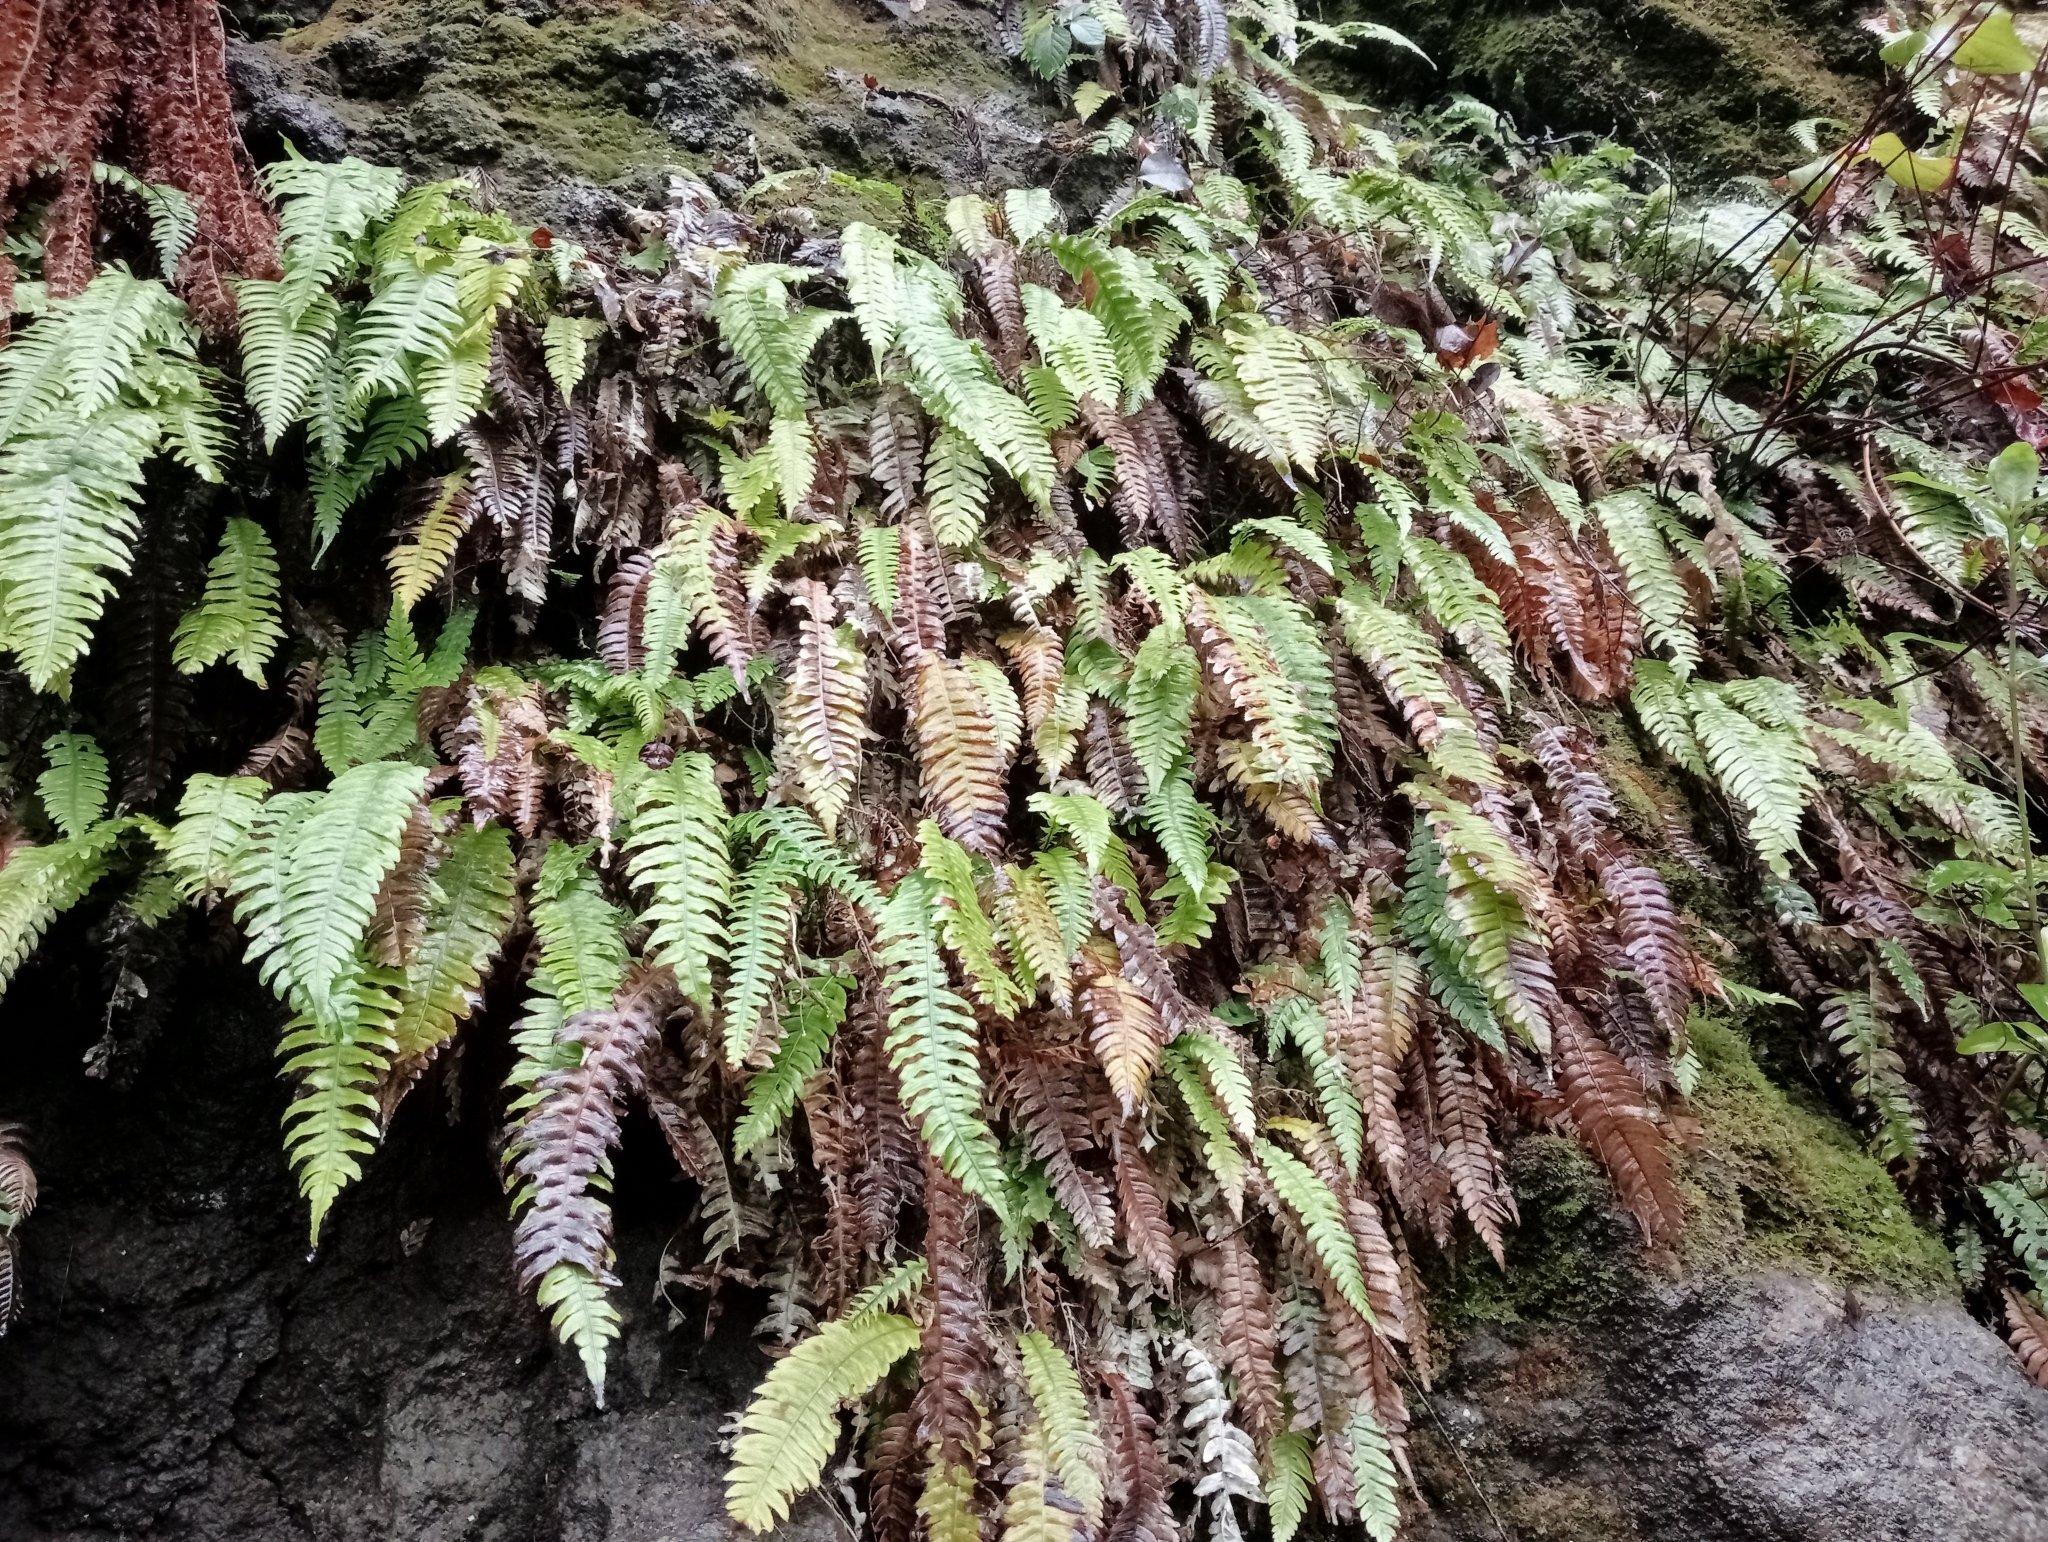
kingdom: Plantae
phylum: Tracheophyta
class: Polypodiopsida
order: Polypodiales
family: Blechnaceae
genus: Austroblechnum
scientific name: Austroblechnum lanceolatum
